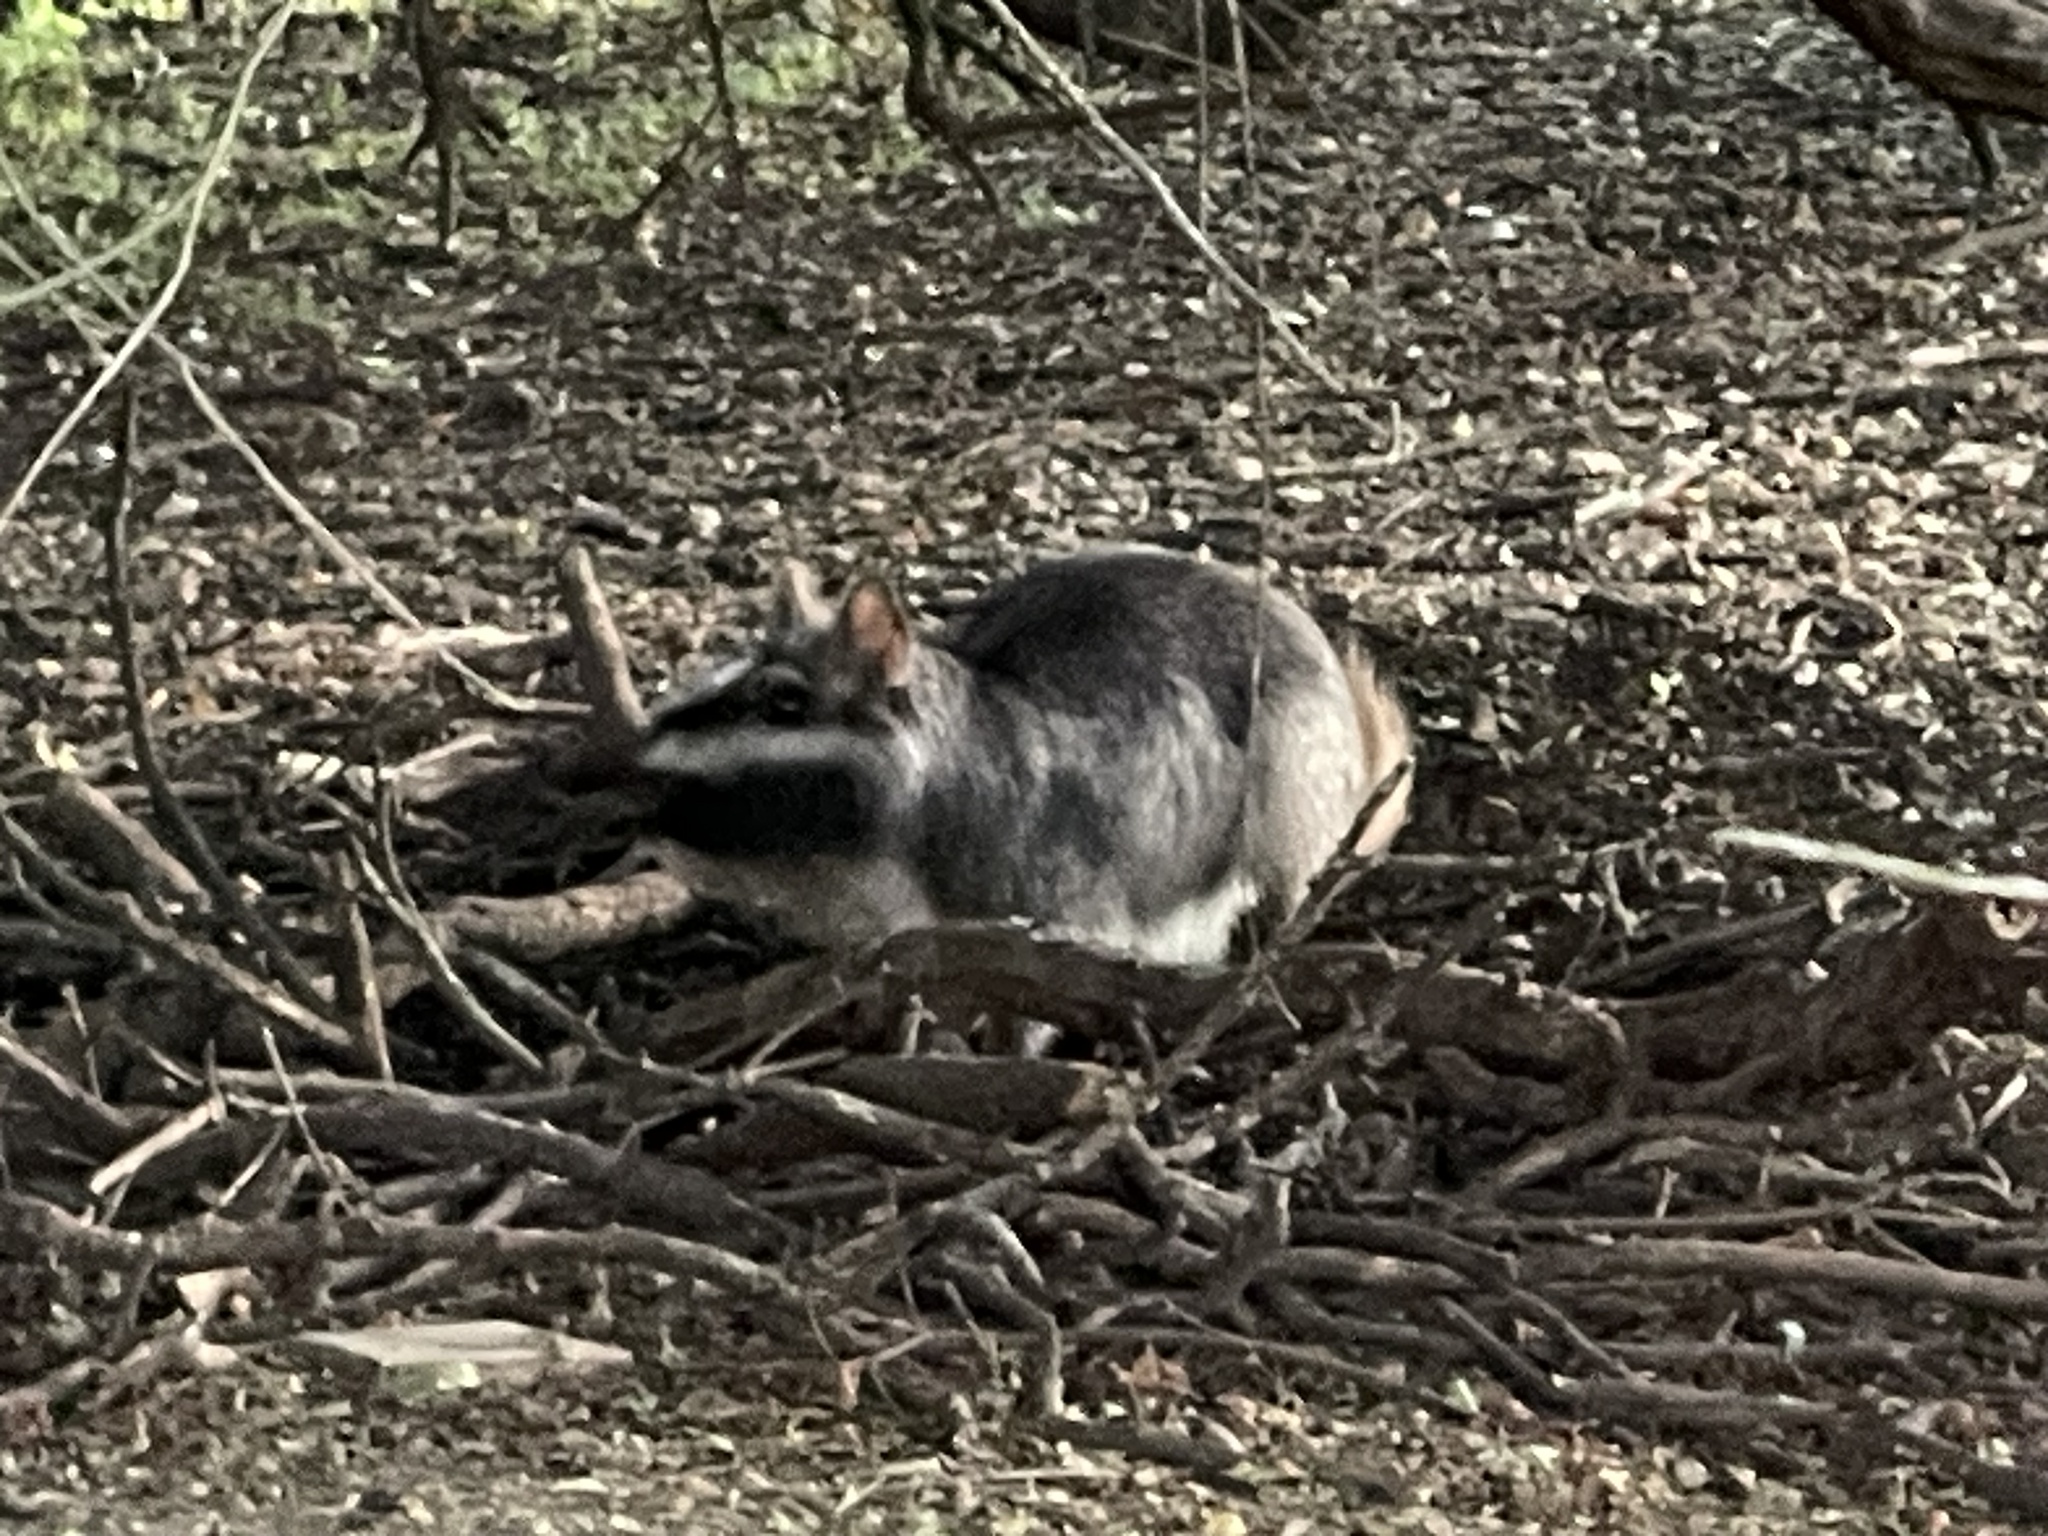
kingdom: Animalia
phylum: Chordata
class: Mammalia
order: Rodentia
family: Chinchillidae
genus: Lagostomus
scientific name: Lagostomus maximus
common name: Plains viscacha
